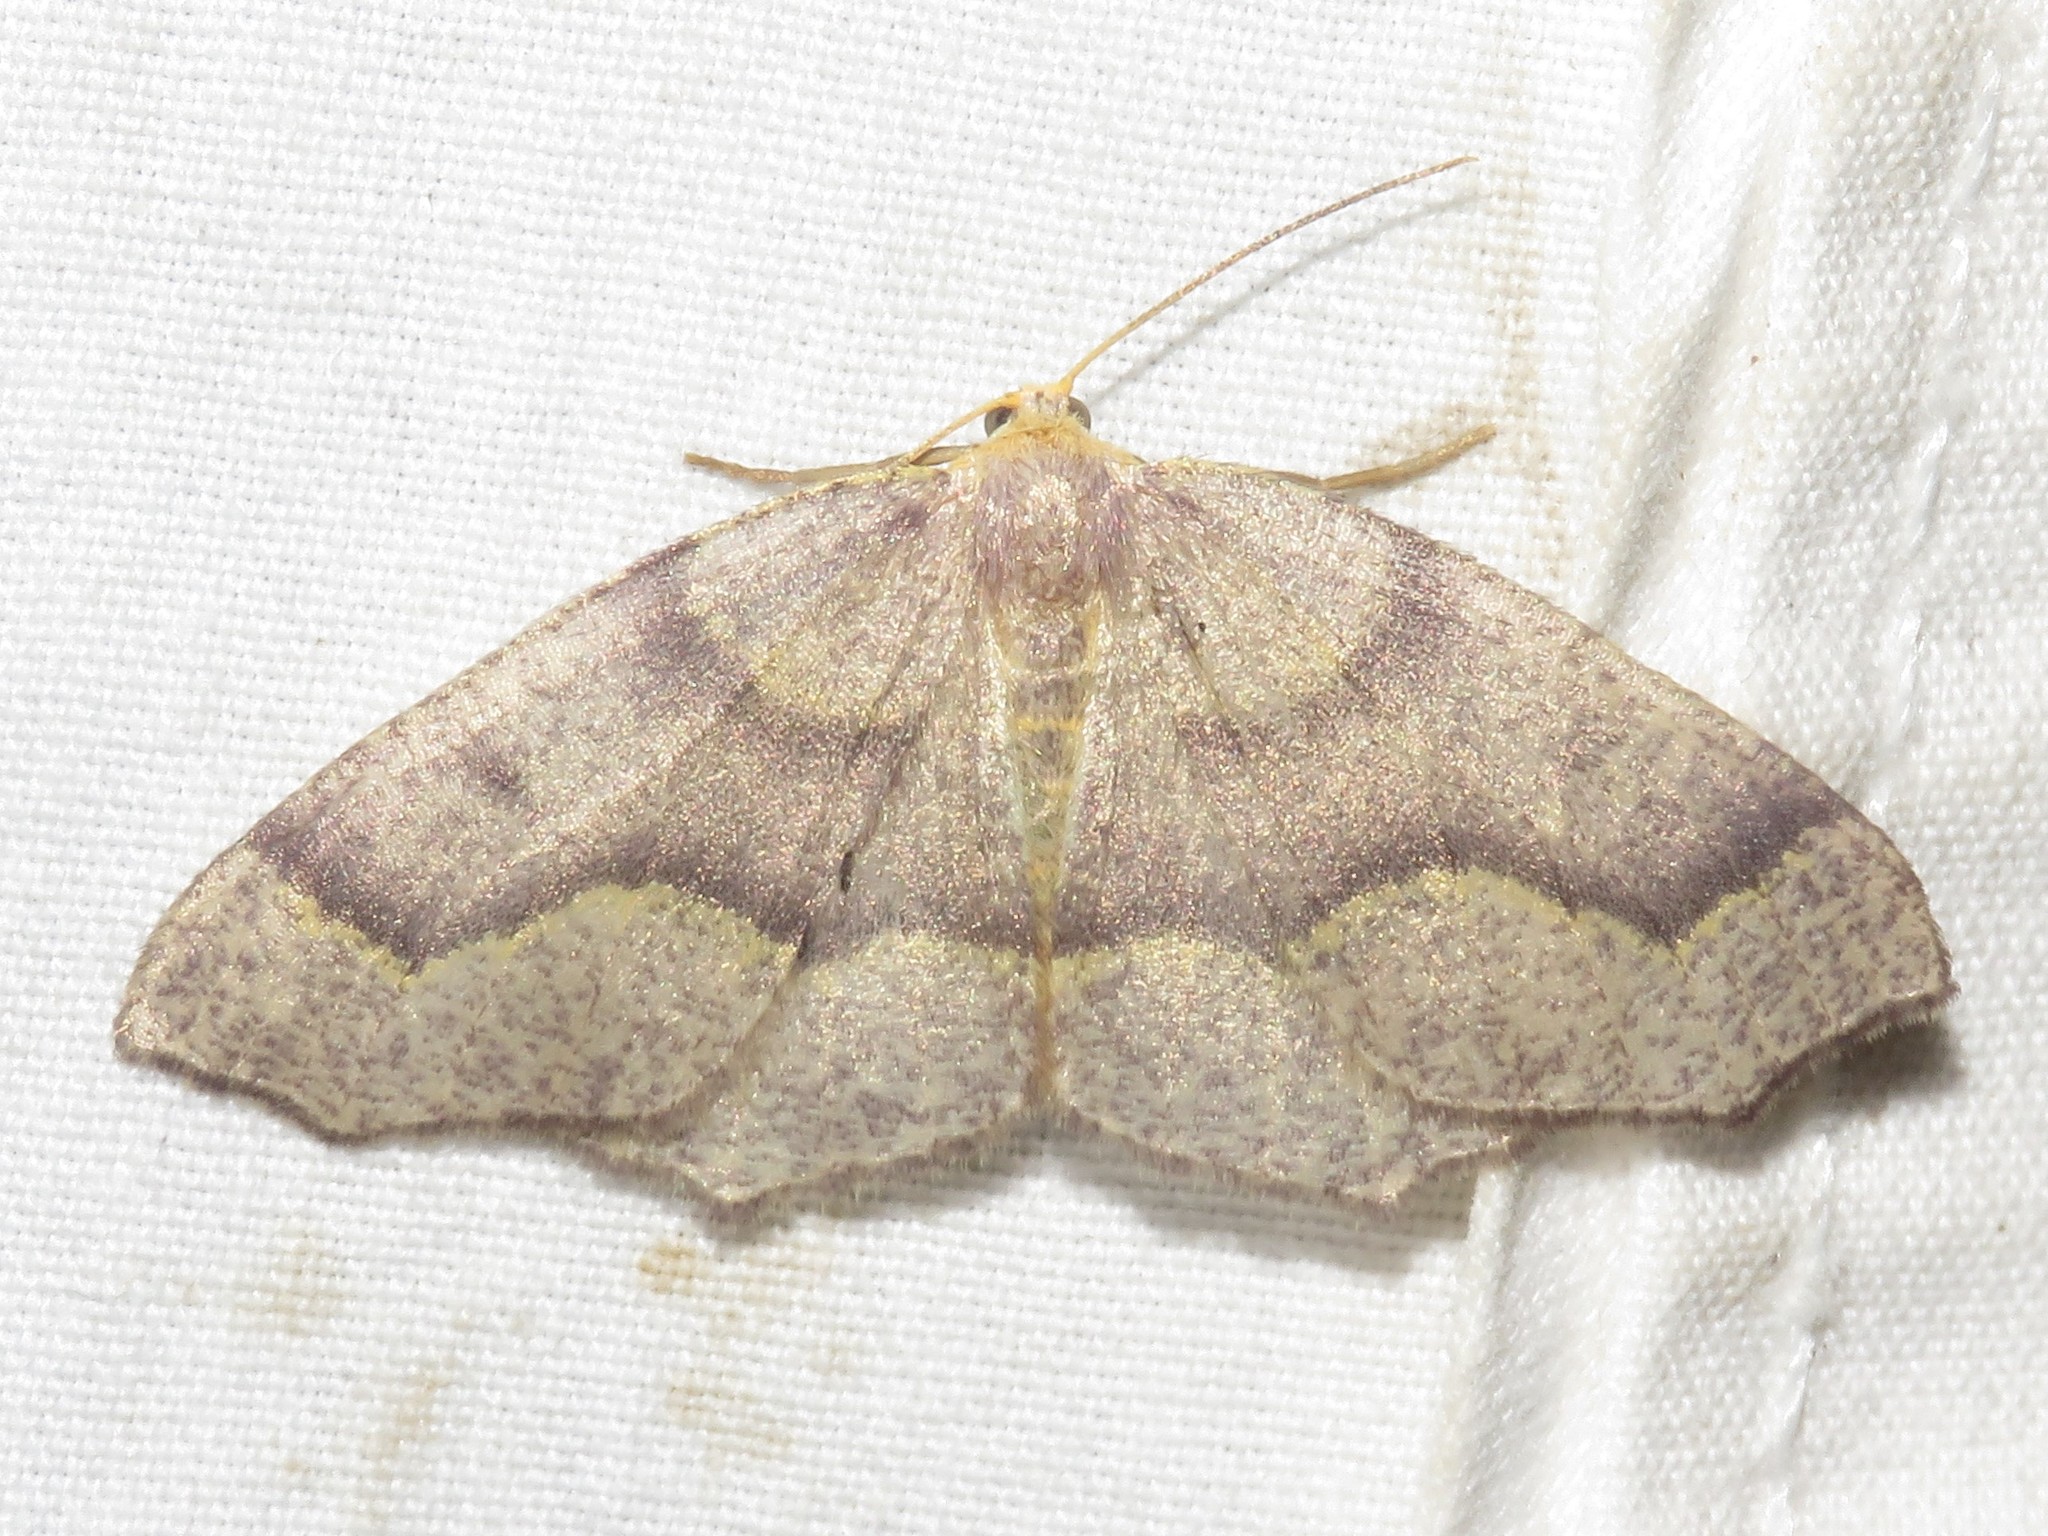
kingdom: Animalia
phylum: Arthropoda
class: Insecta
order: Lepidoptera
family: Geometridae
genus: Lambdina
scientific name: Lambdina fiscellaria
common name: Hemlock looper
